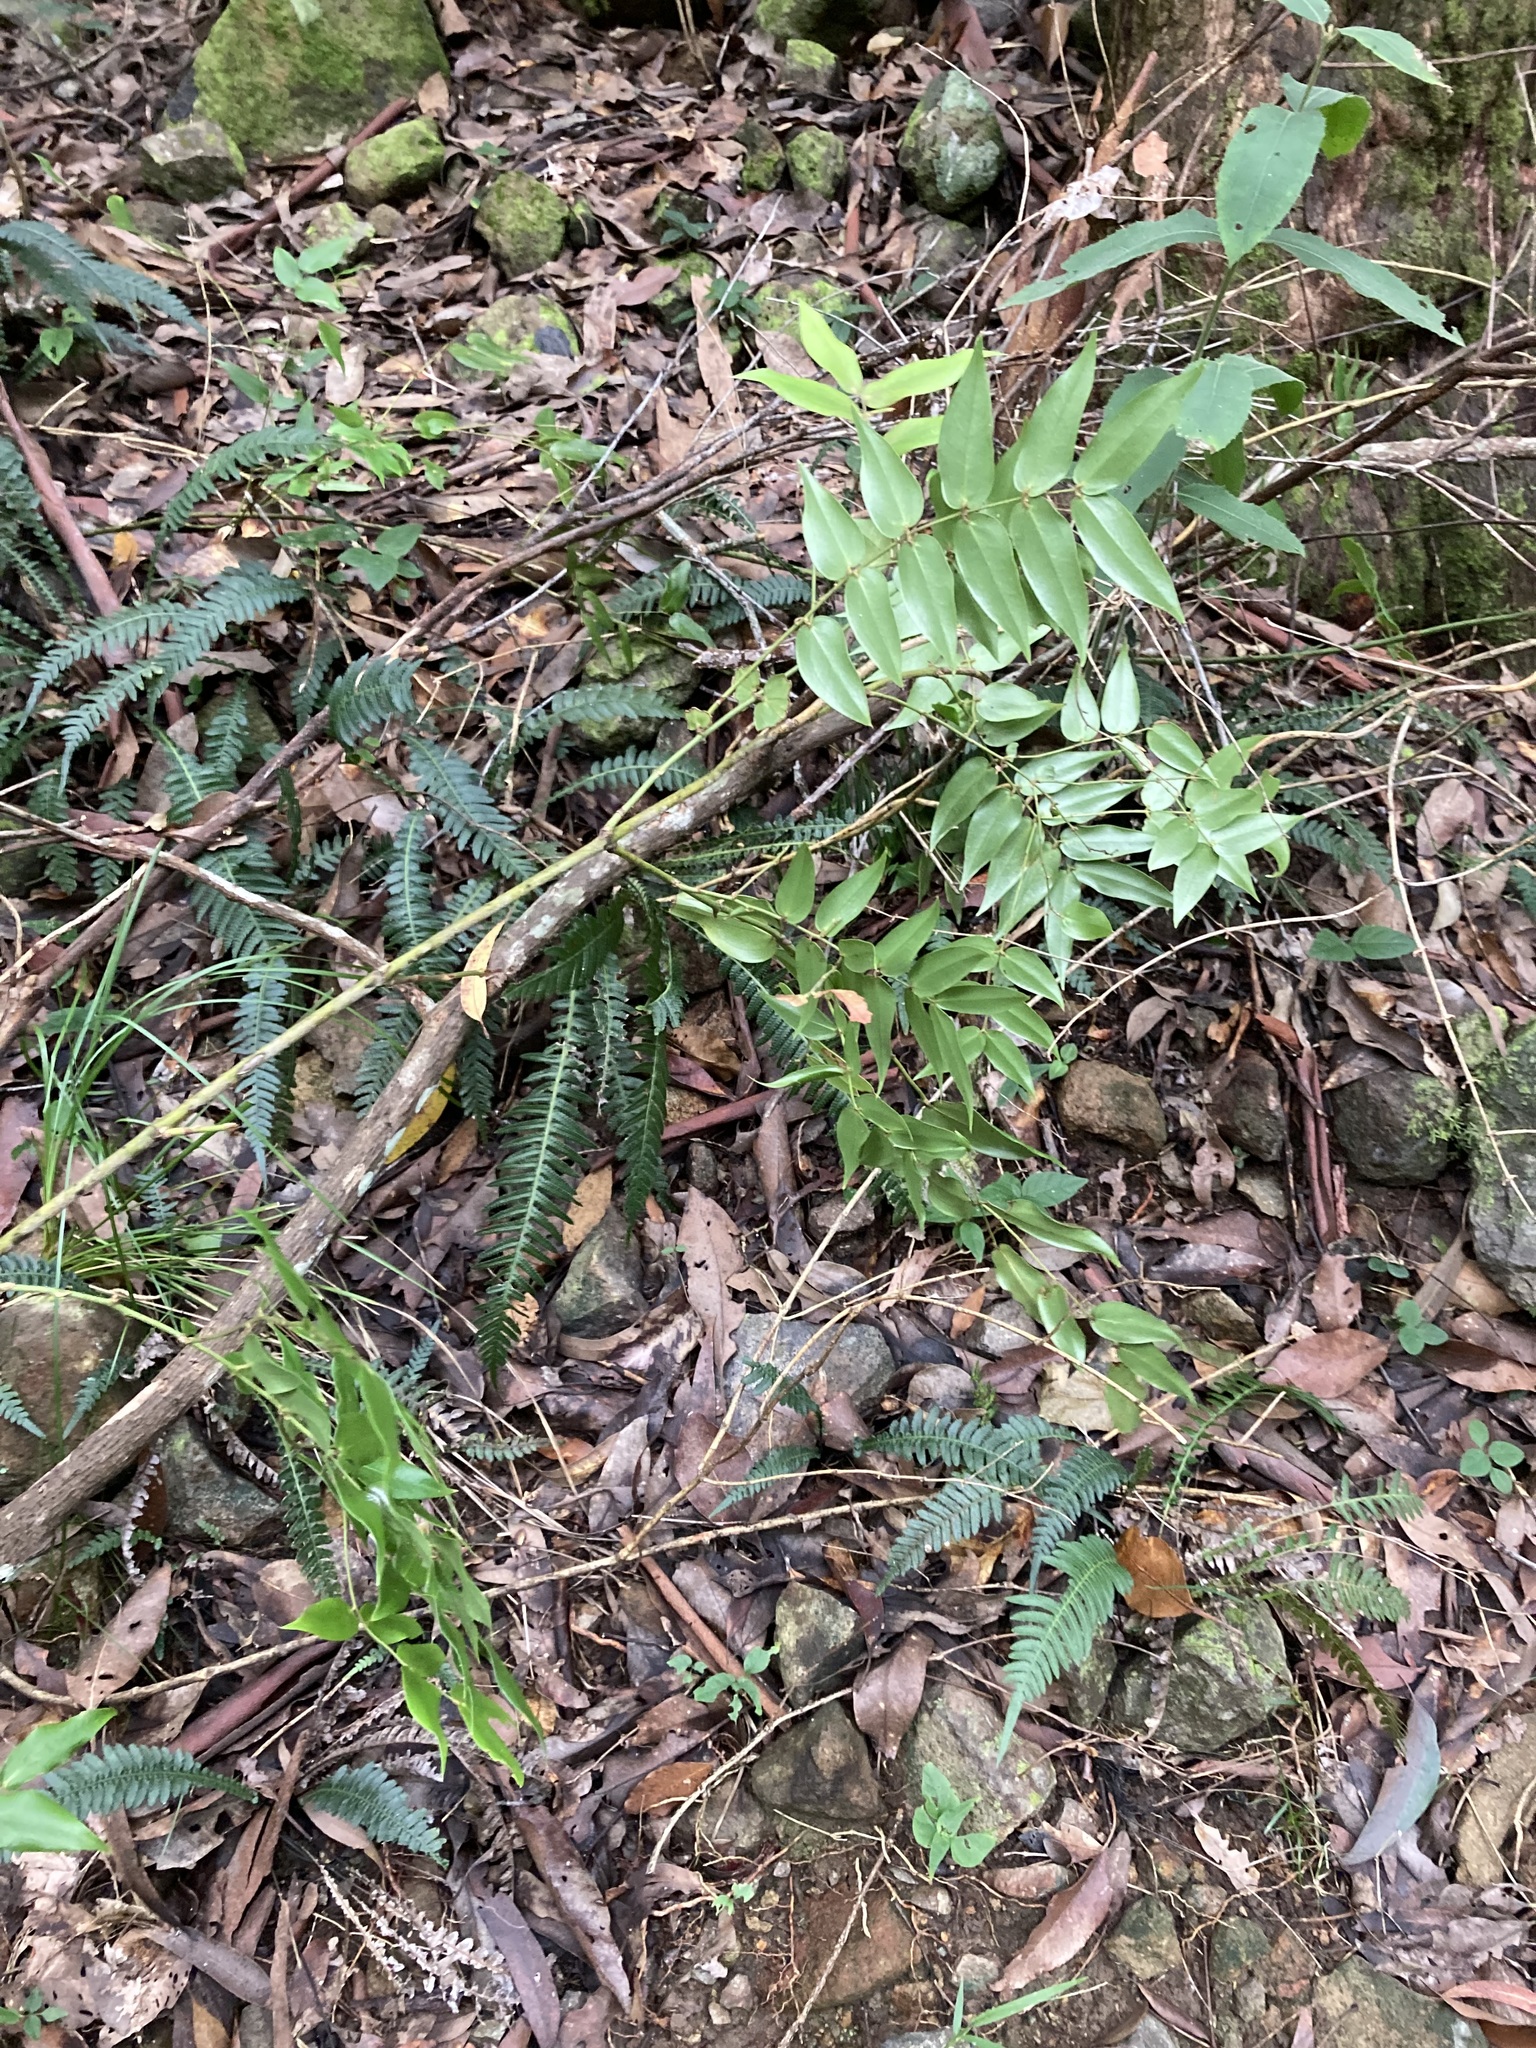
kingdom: Plantae
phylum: Tracheophyta
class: Liliopsida
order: Liliales
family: Ripogonaceae
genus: Ripogonum
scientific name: Ripogonum fawcettianum
